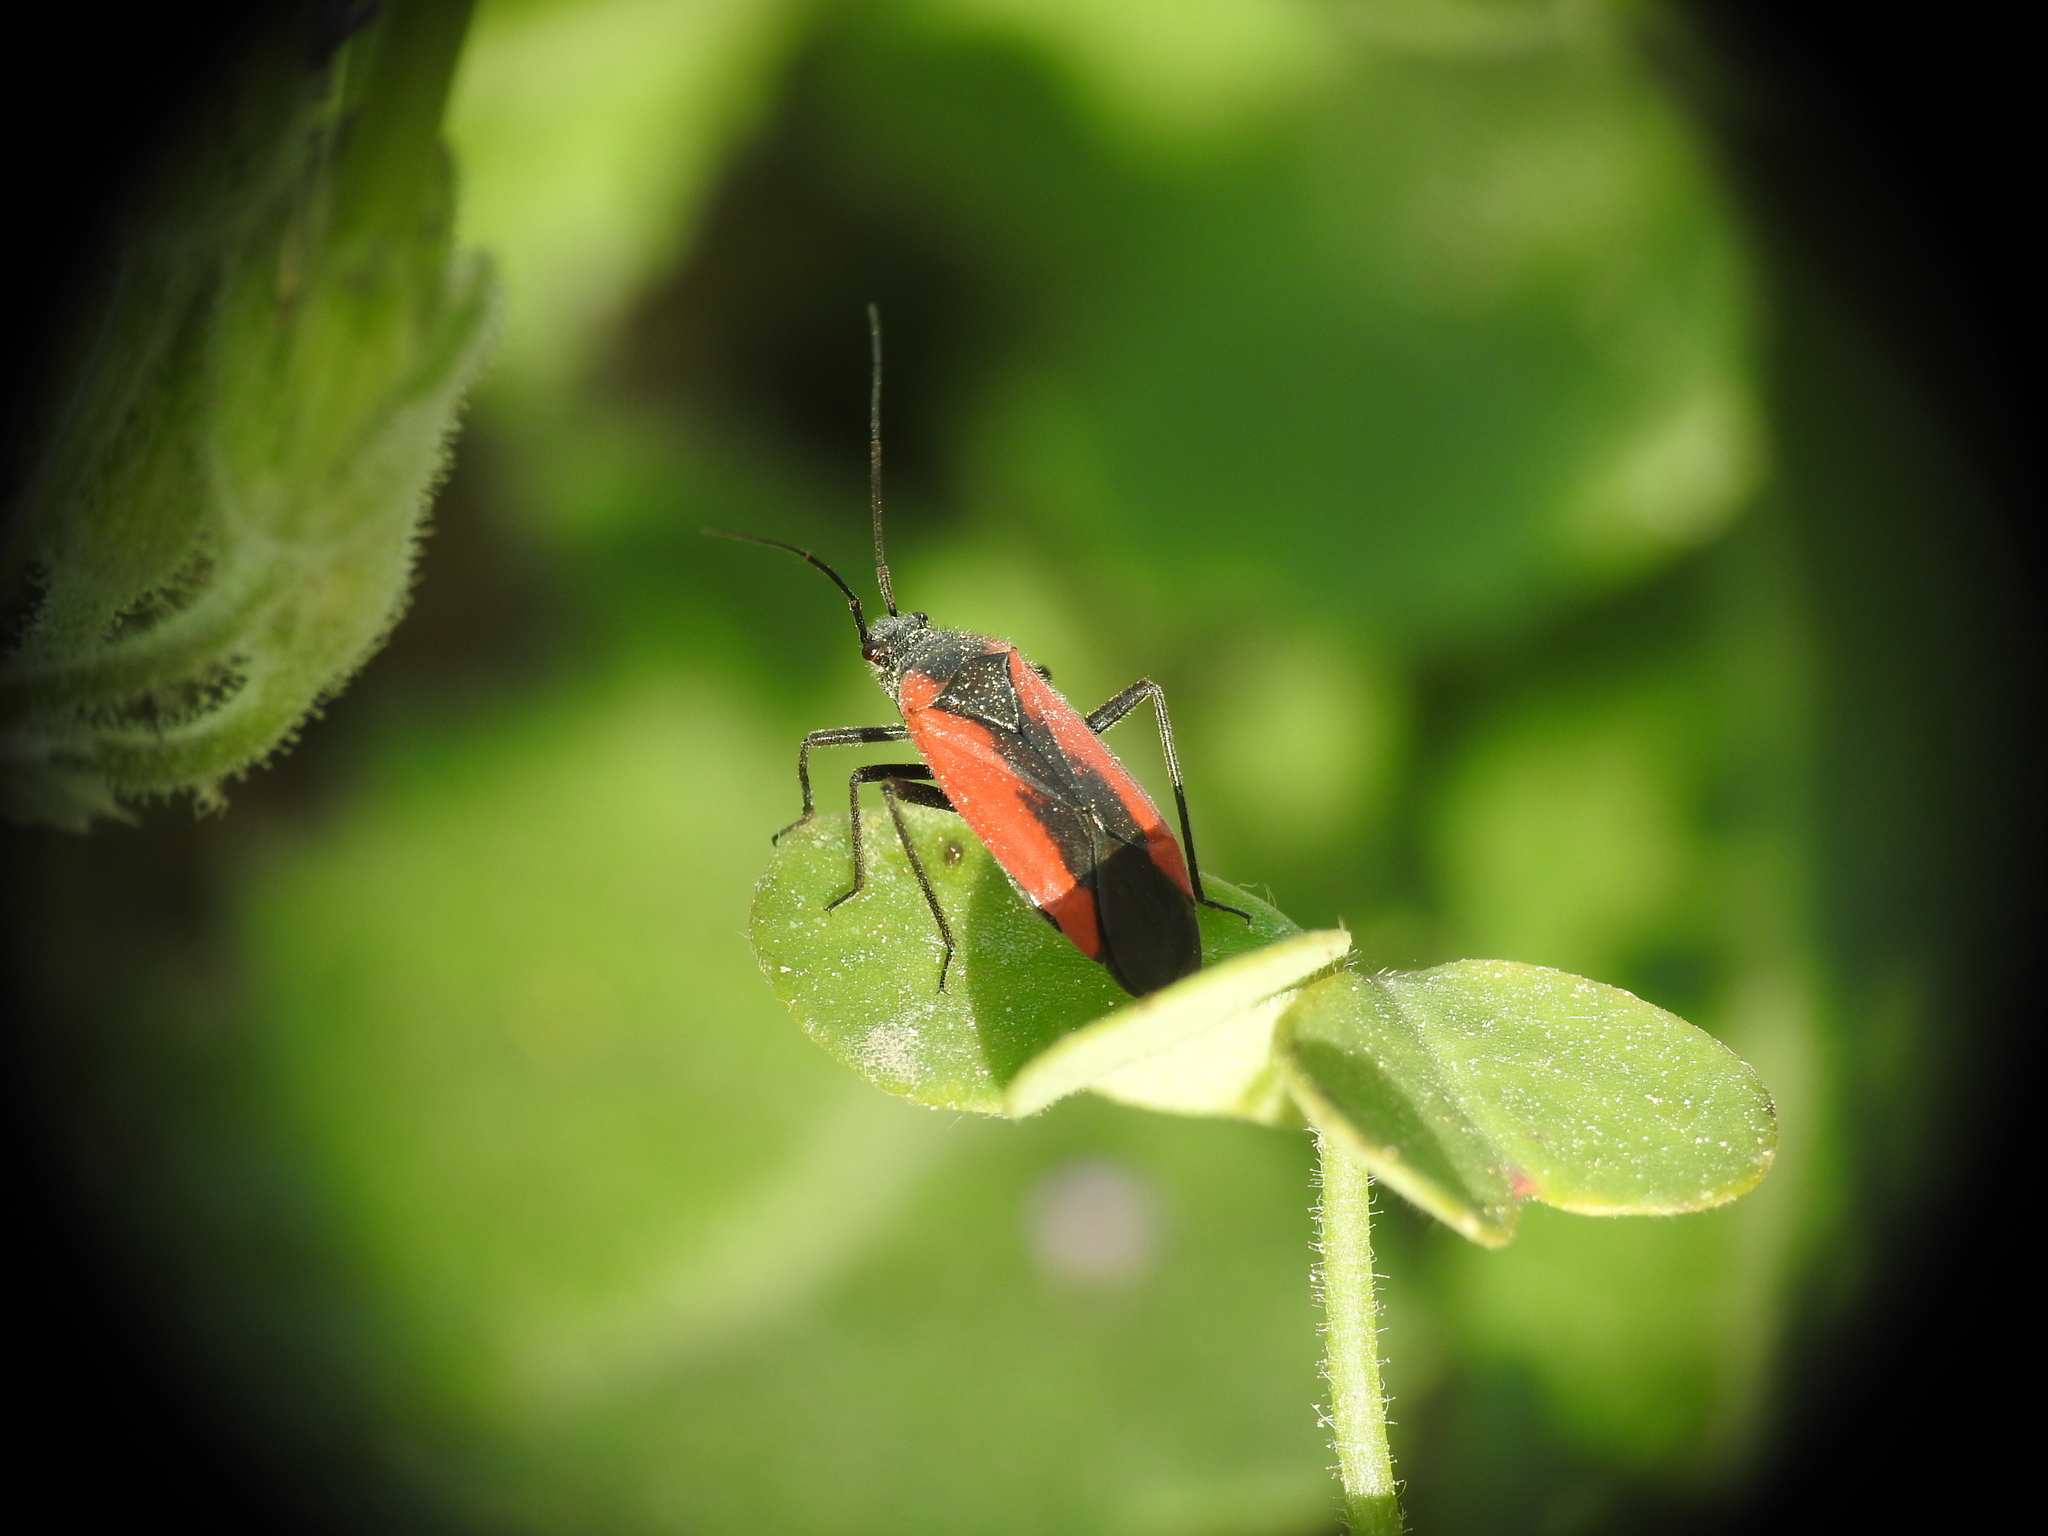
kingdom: Animalia
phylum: Arthropoda
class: Insecta
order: Hemiptera
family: Miridae
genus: Dionconotus
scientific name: Dionconotus neglectus
